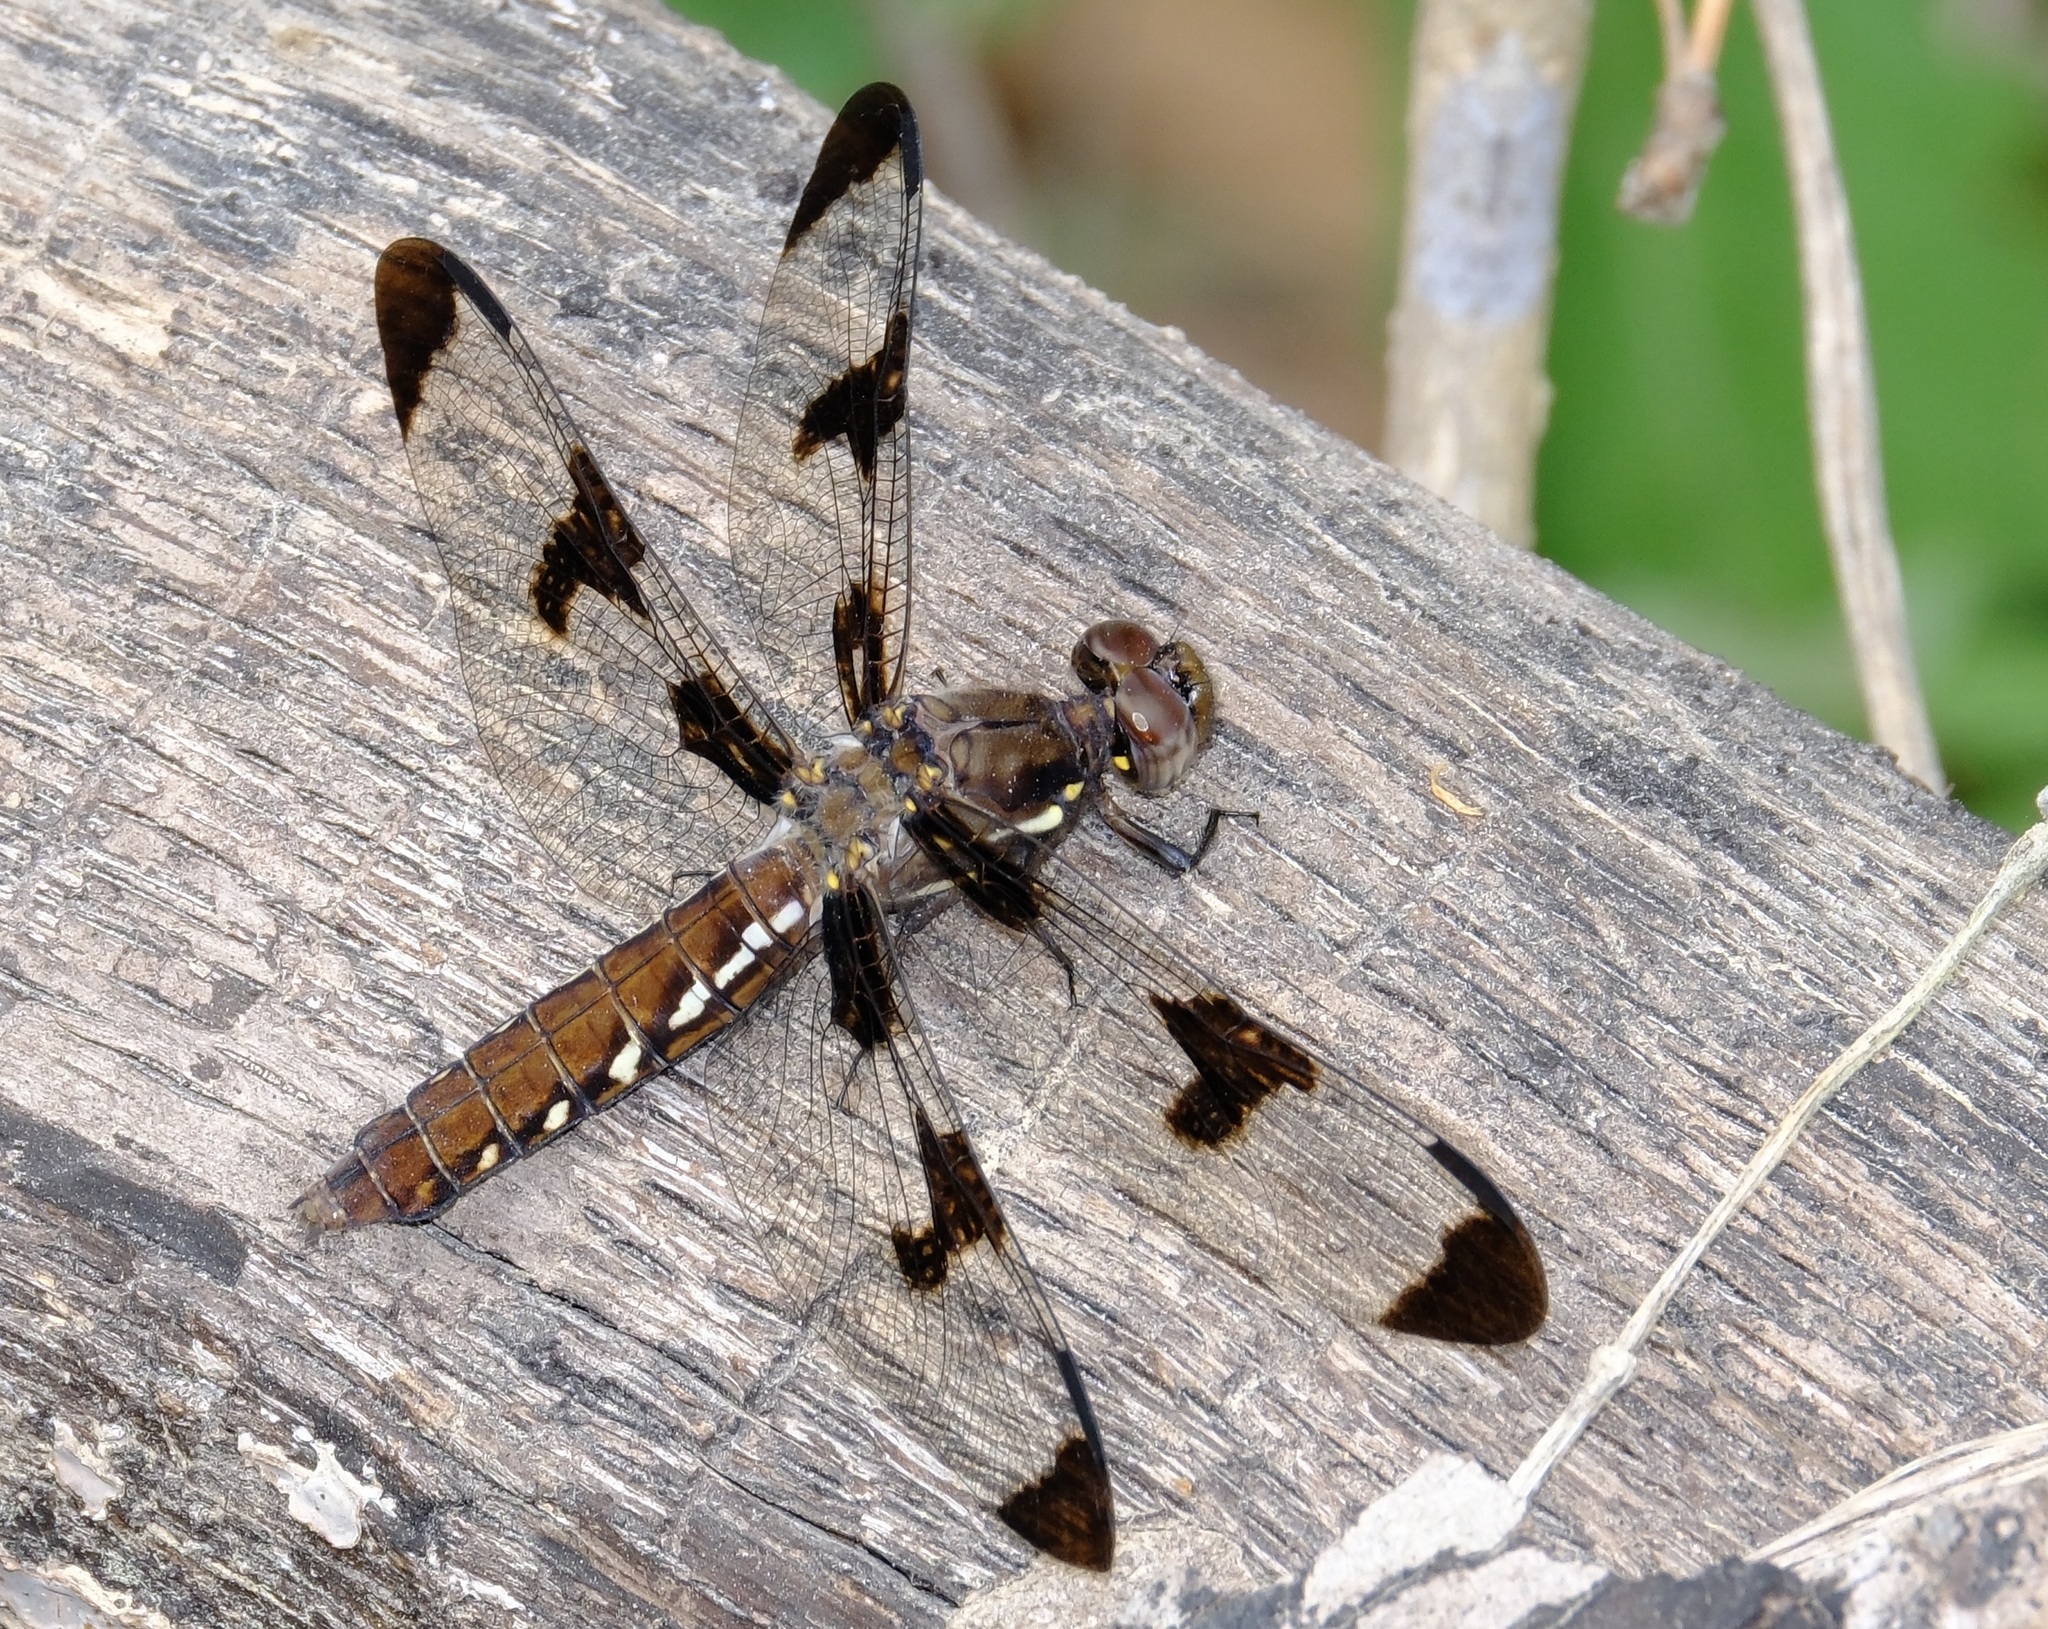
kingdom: Animalia
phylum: Arthropoda
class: Insecta
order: Odonata
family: Libellulidae
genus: Plathemis
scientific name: Plathemis lydia
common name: Common whitetail
